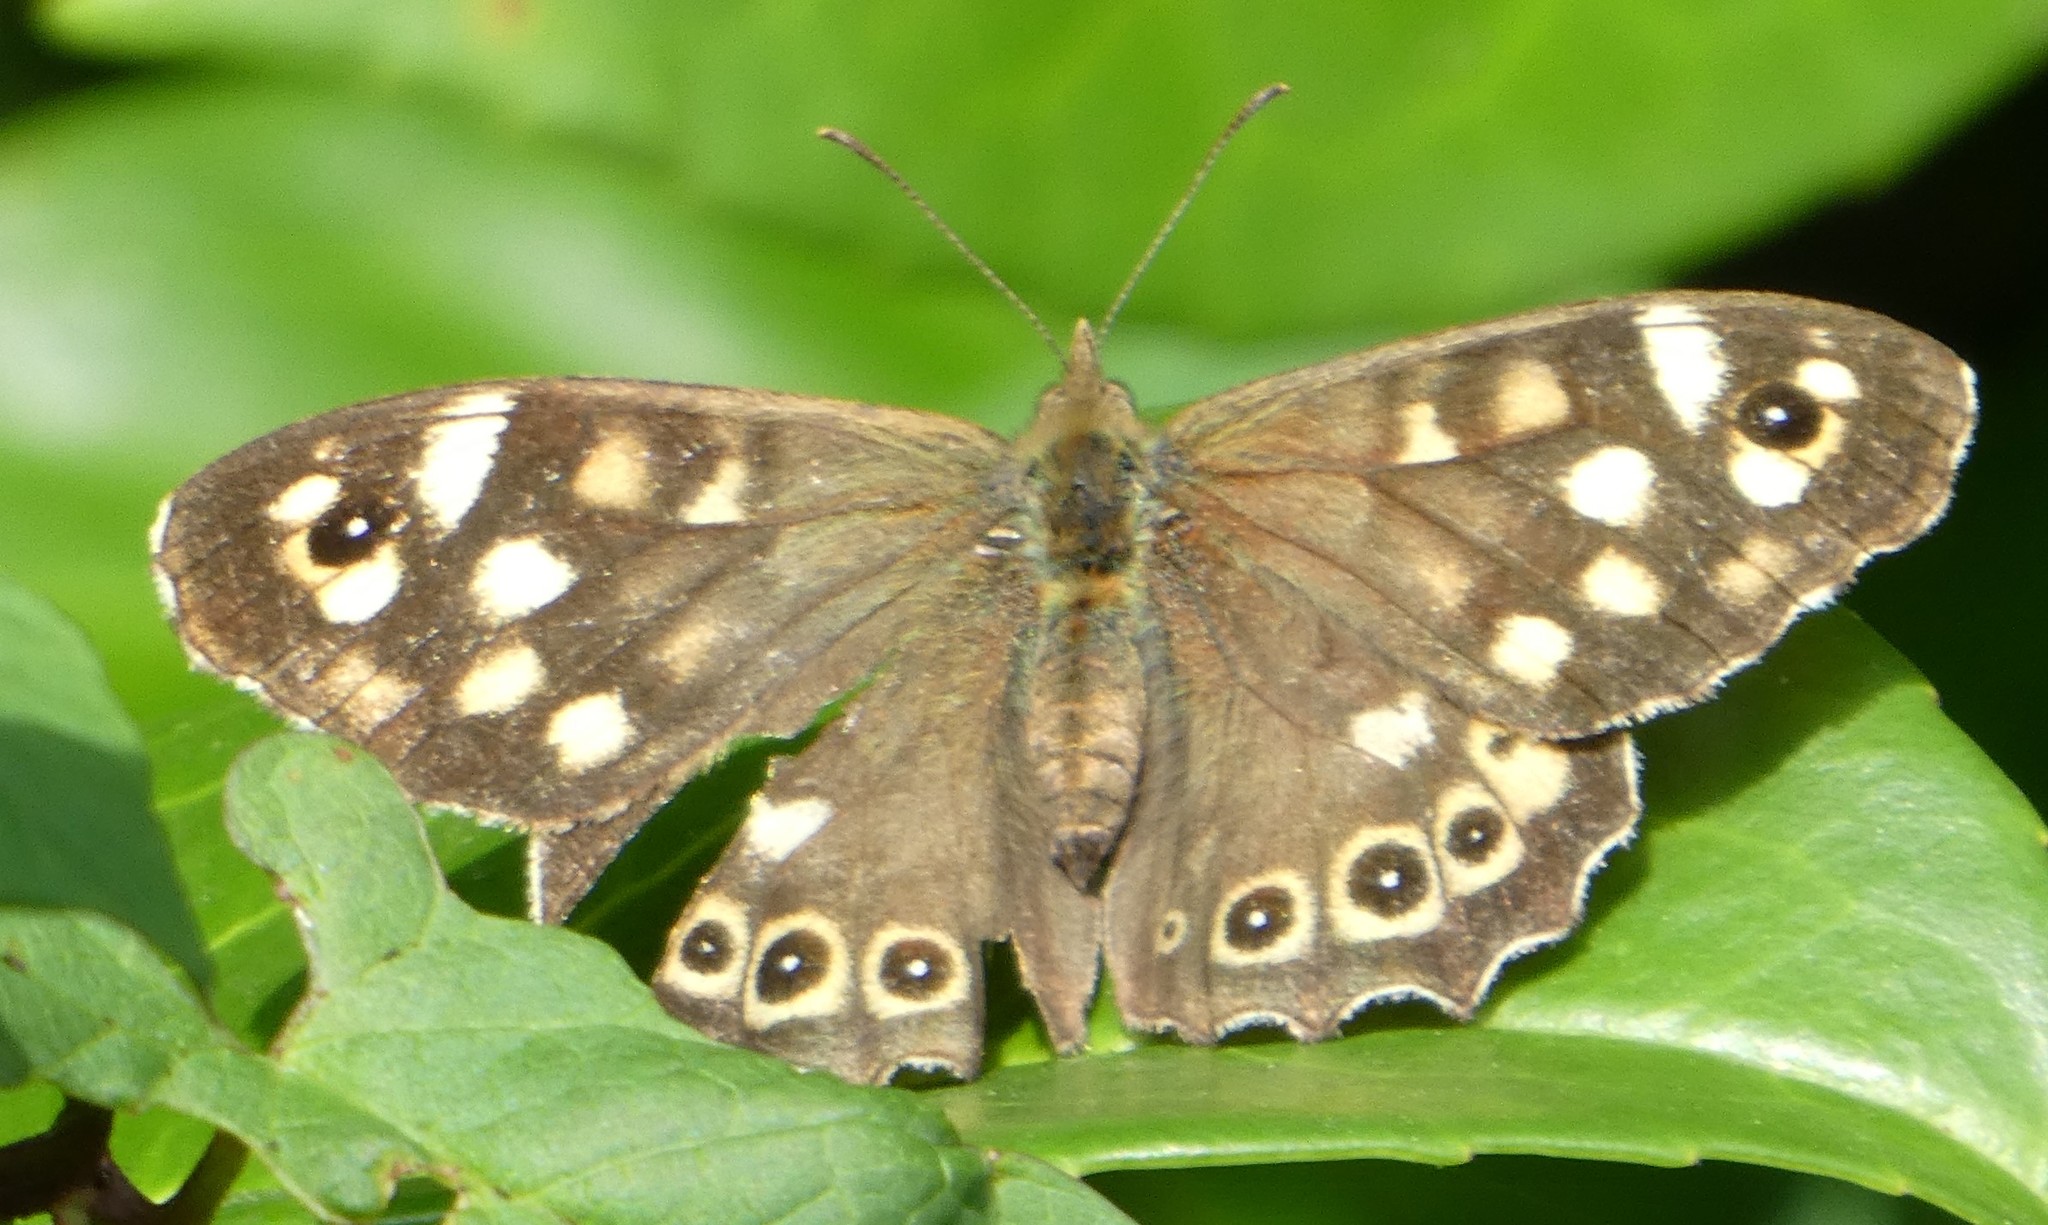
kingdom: Animalia
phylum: Arthropoda
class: Insecta
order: Lepidoptera
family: Nymphalidae
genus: Pararge
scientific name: Pararge aegeria
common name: Speckled wood
